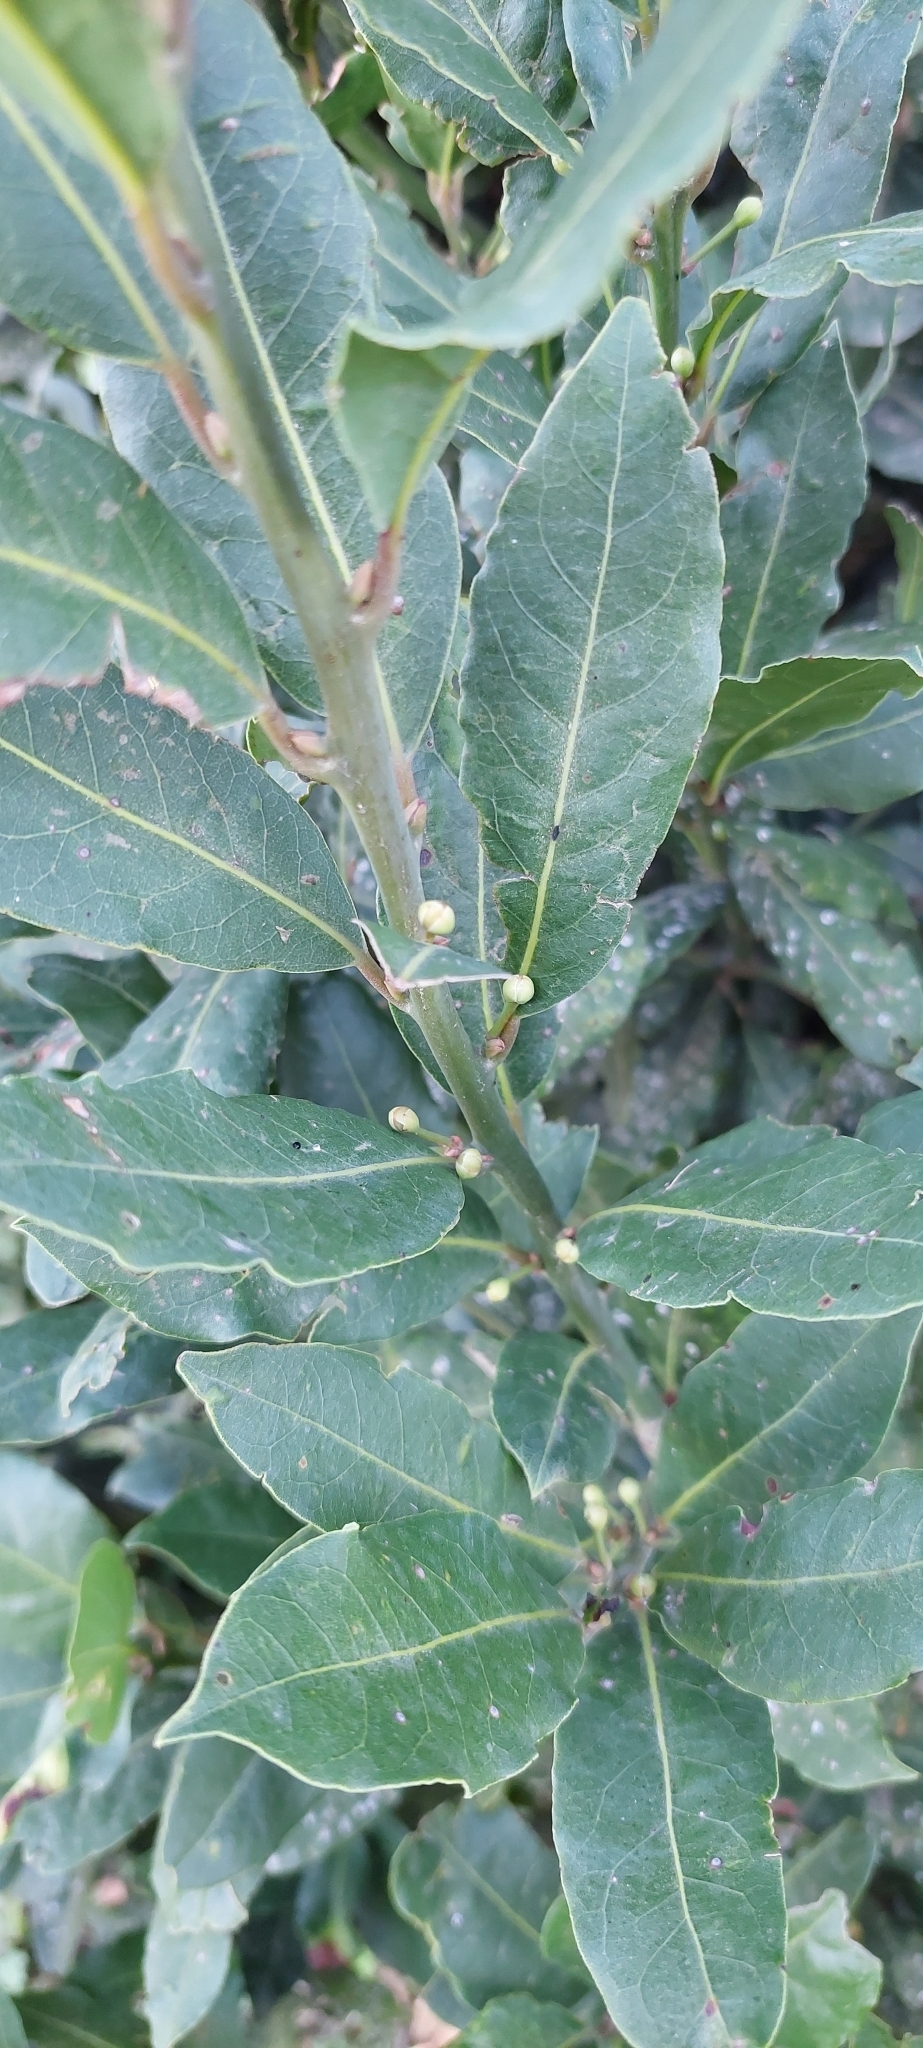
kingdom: Plantae
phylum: Tracheophyta
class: Magnoliopsida
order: Laurales
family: Lauraceae
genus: Laurus
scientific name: Laurus nobilis
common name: Bay
